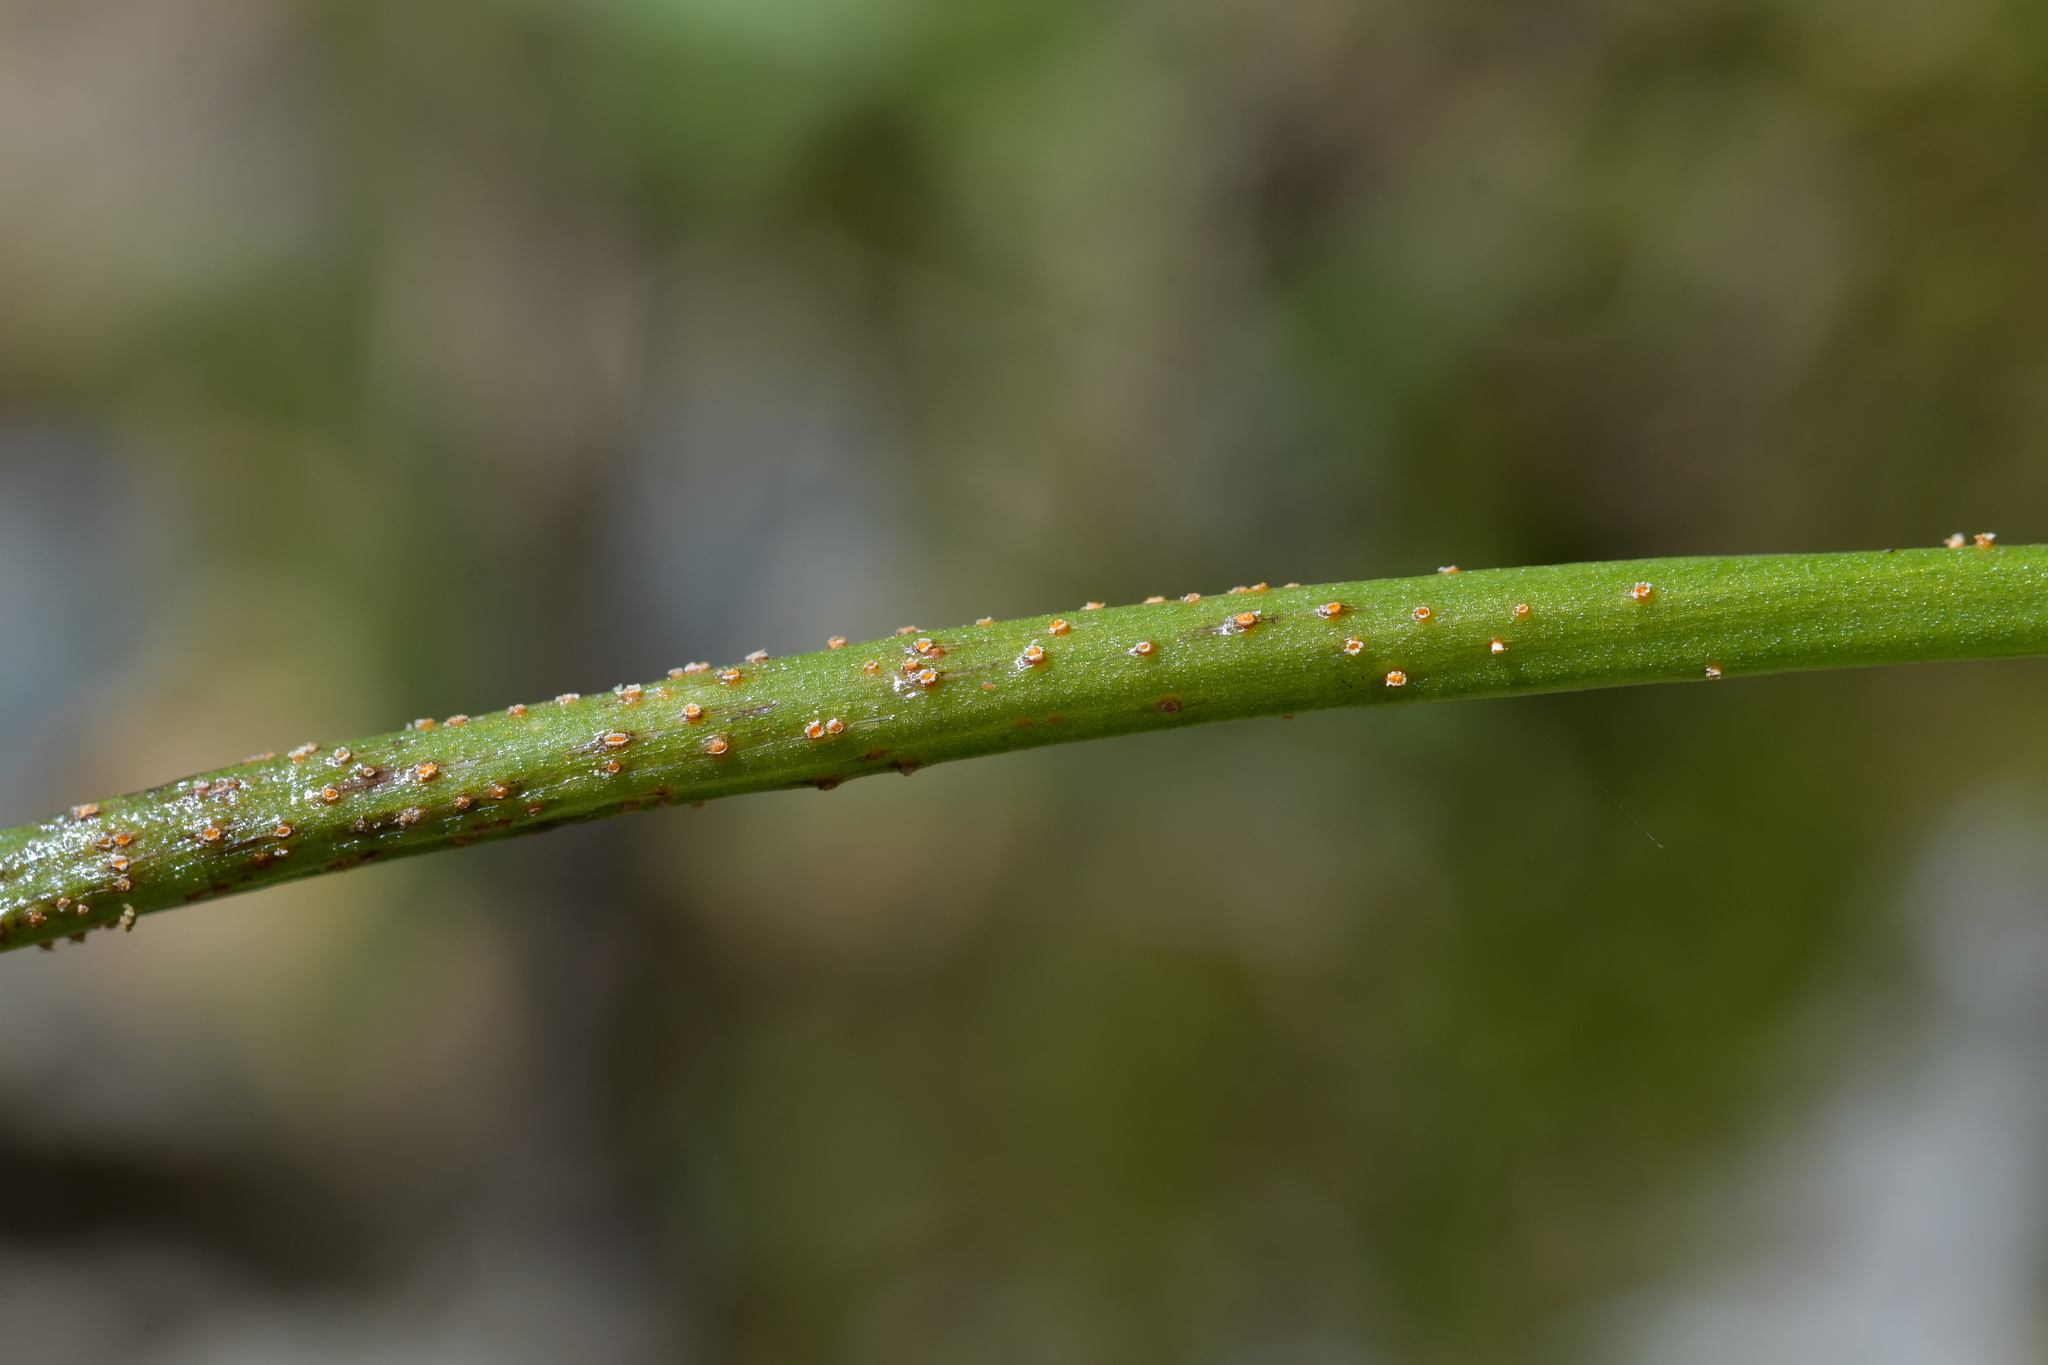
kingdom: Fungi
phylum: Basidiomycota
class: Pucciniomycetes
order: Pucciniales
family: Pucciniaceae
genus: Uromyces
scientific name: Uromyces microtidis
